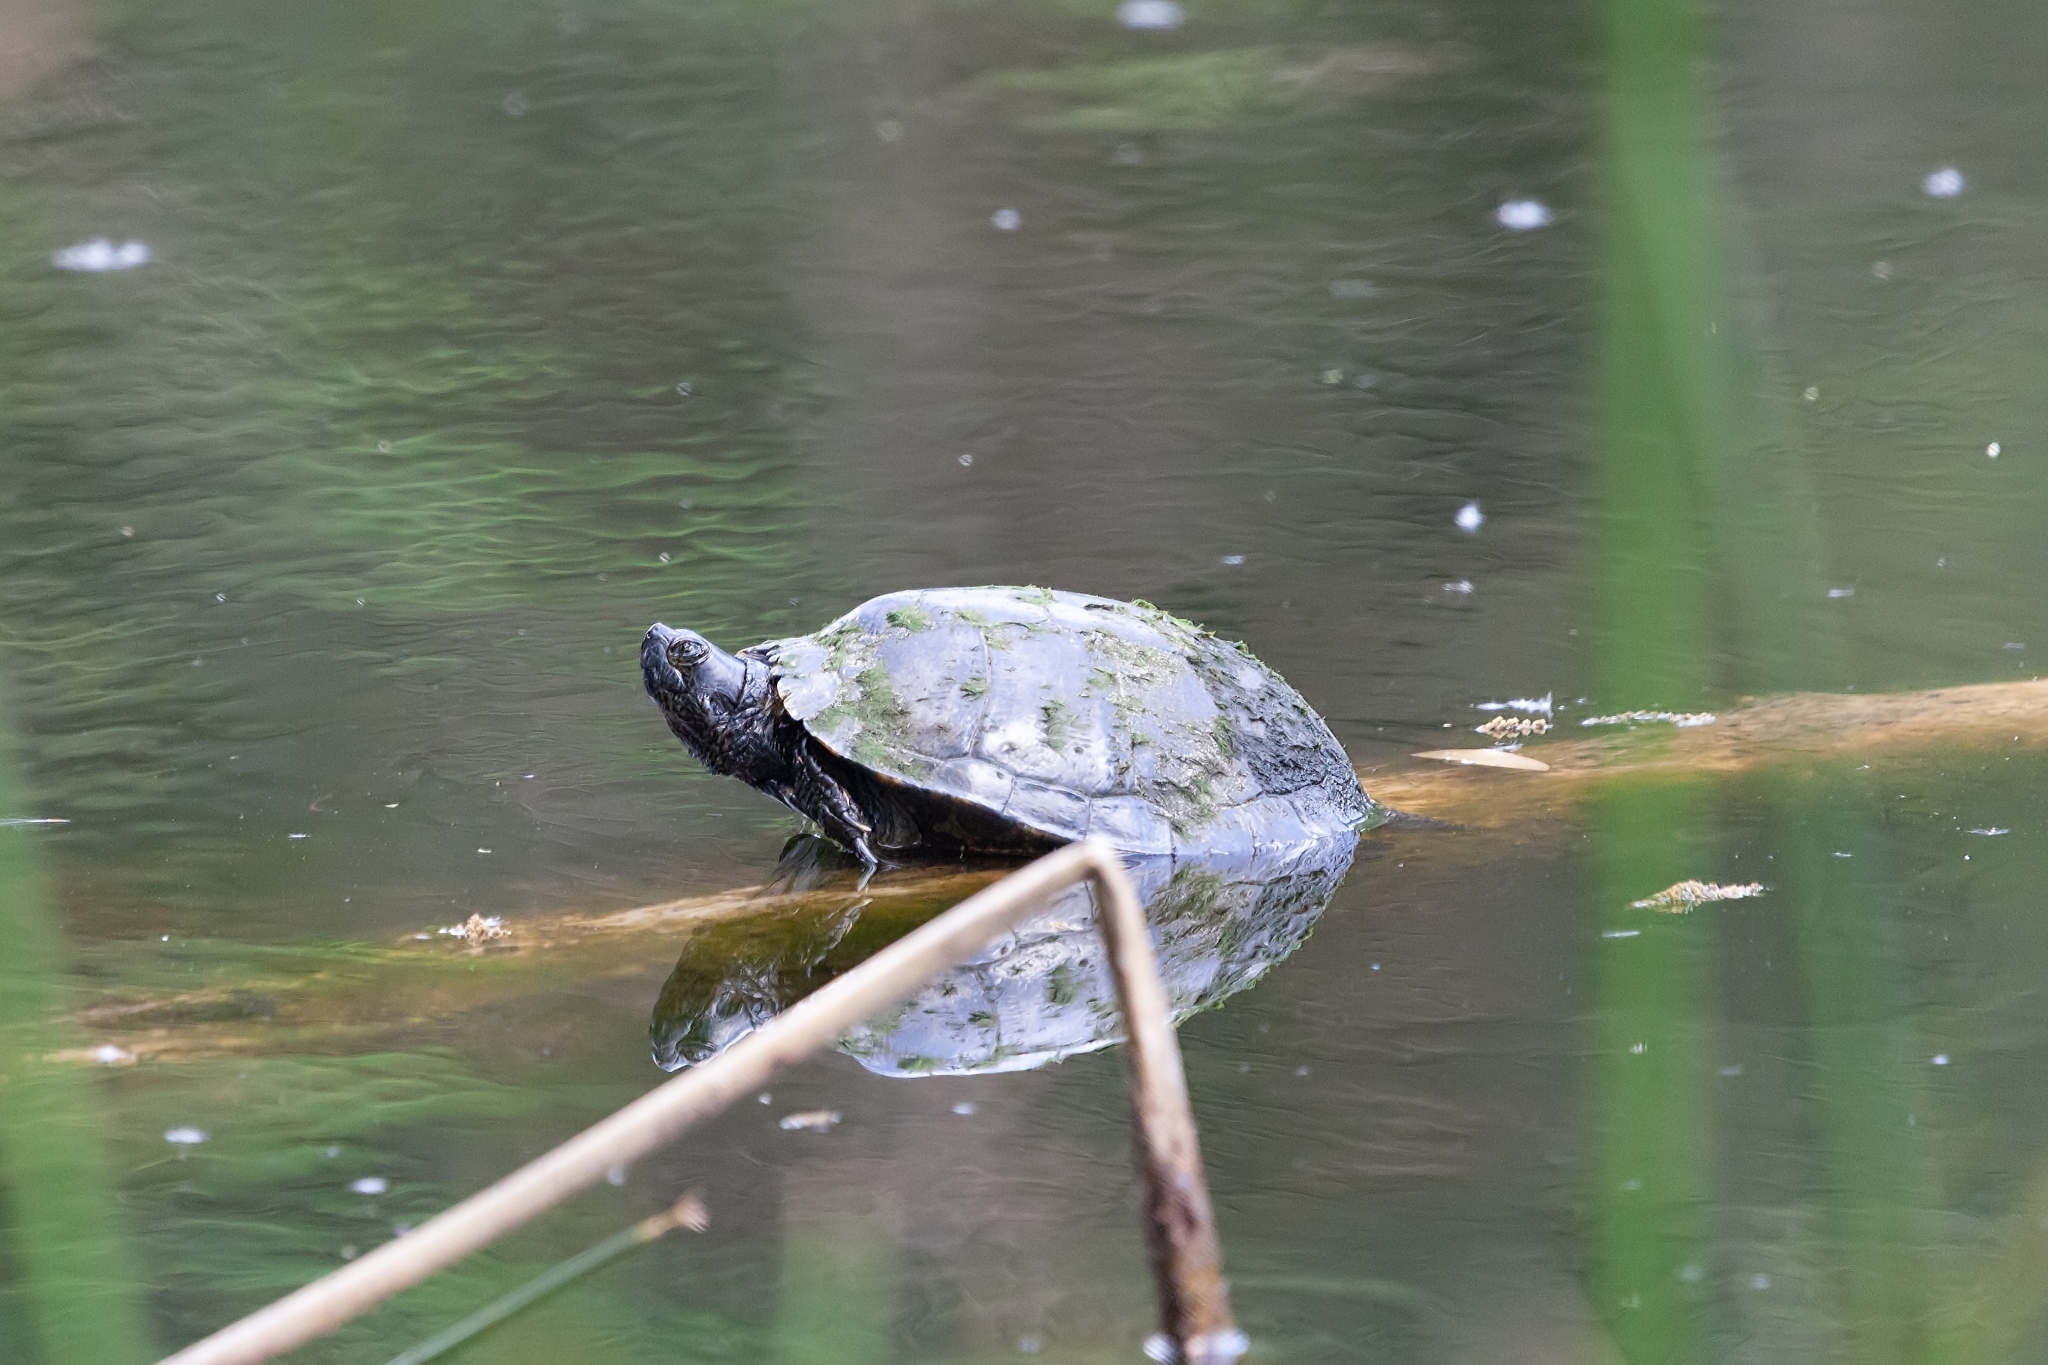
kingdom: Animalia
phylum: Chordata
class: Testudines
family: Emydidae
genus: Trachemys
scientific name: Trachemys scripta
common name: Slider
